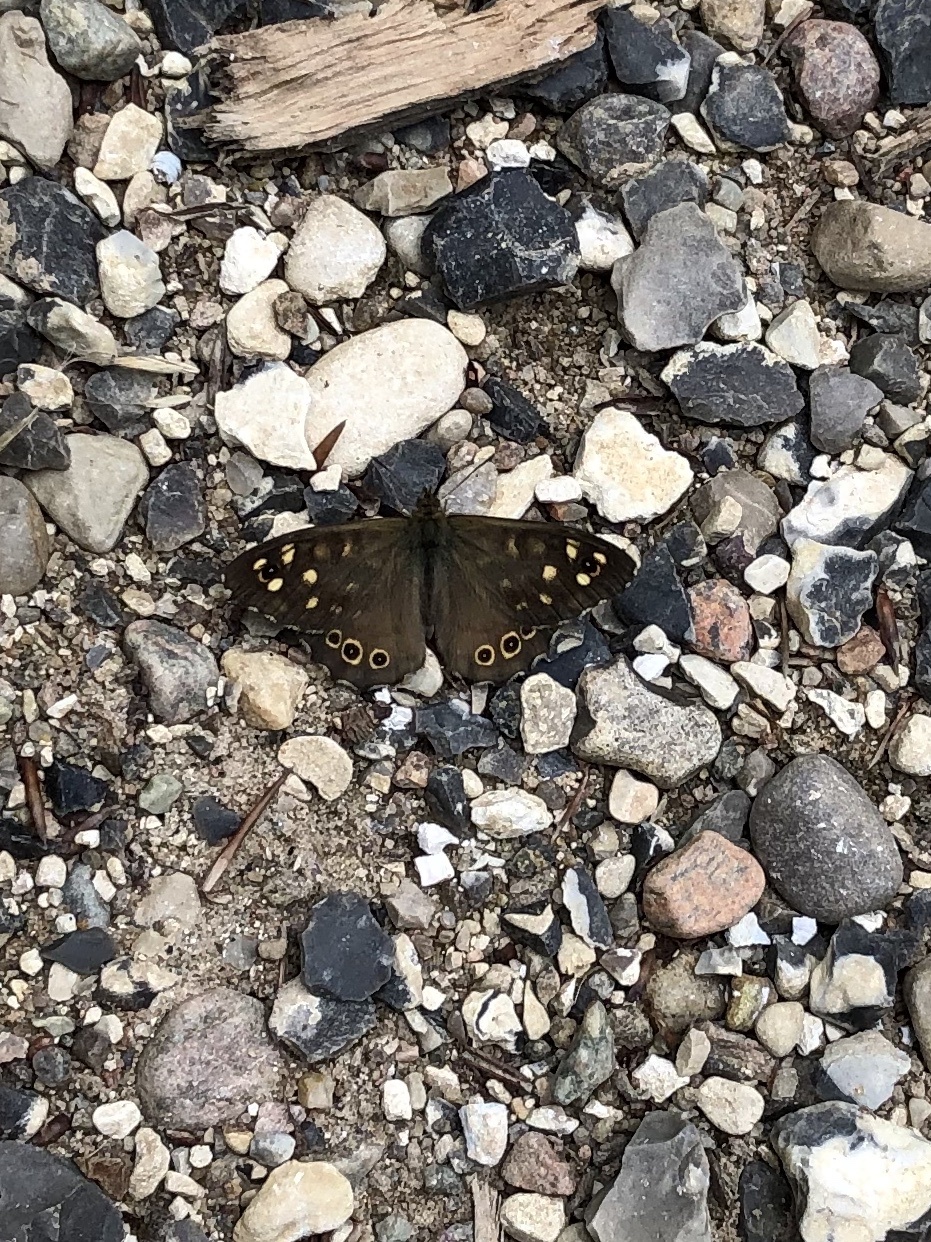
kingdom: Animalia
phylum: Arthropoda
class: Insecta
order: Lepidoptera
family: Nymphalidae
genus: Pararge
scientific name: Pararge aegeria
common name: Speckled wood
